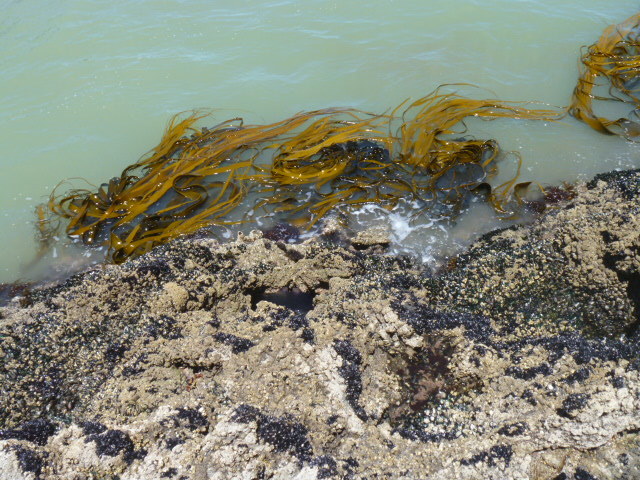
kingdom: Chromista
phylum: Ochrophyta
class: Phaeophyceae
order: Fucales
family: Durvillaeaceae
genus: Durvillaea
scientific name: Durvillaea antarctica
